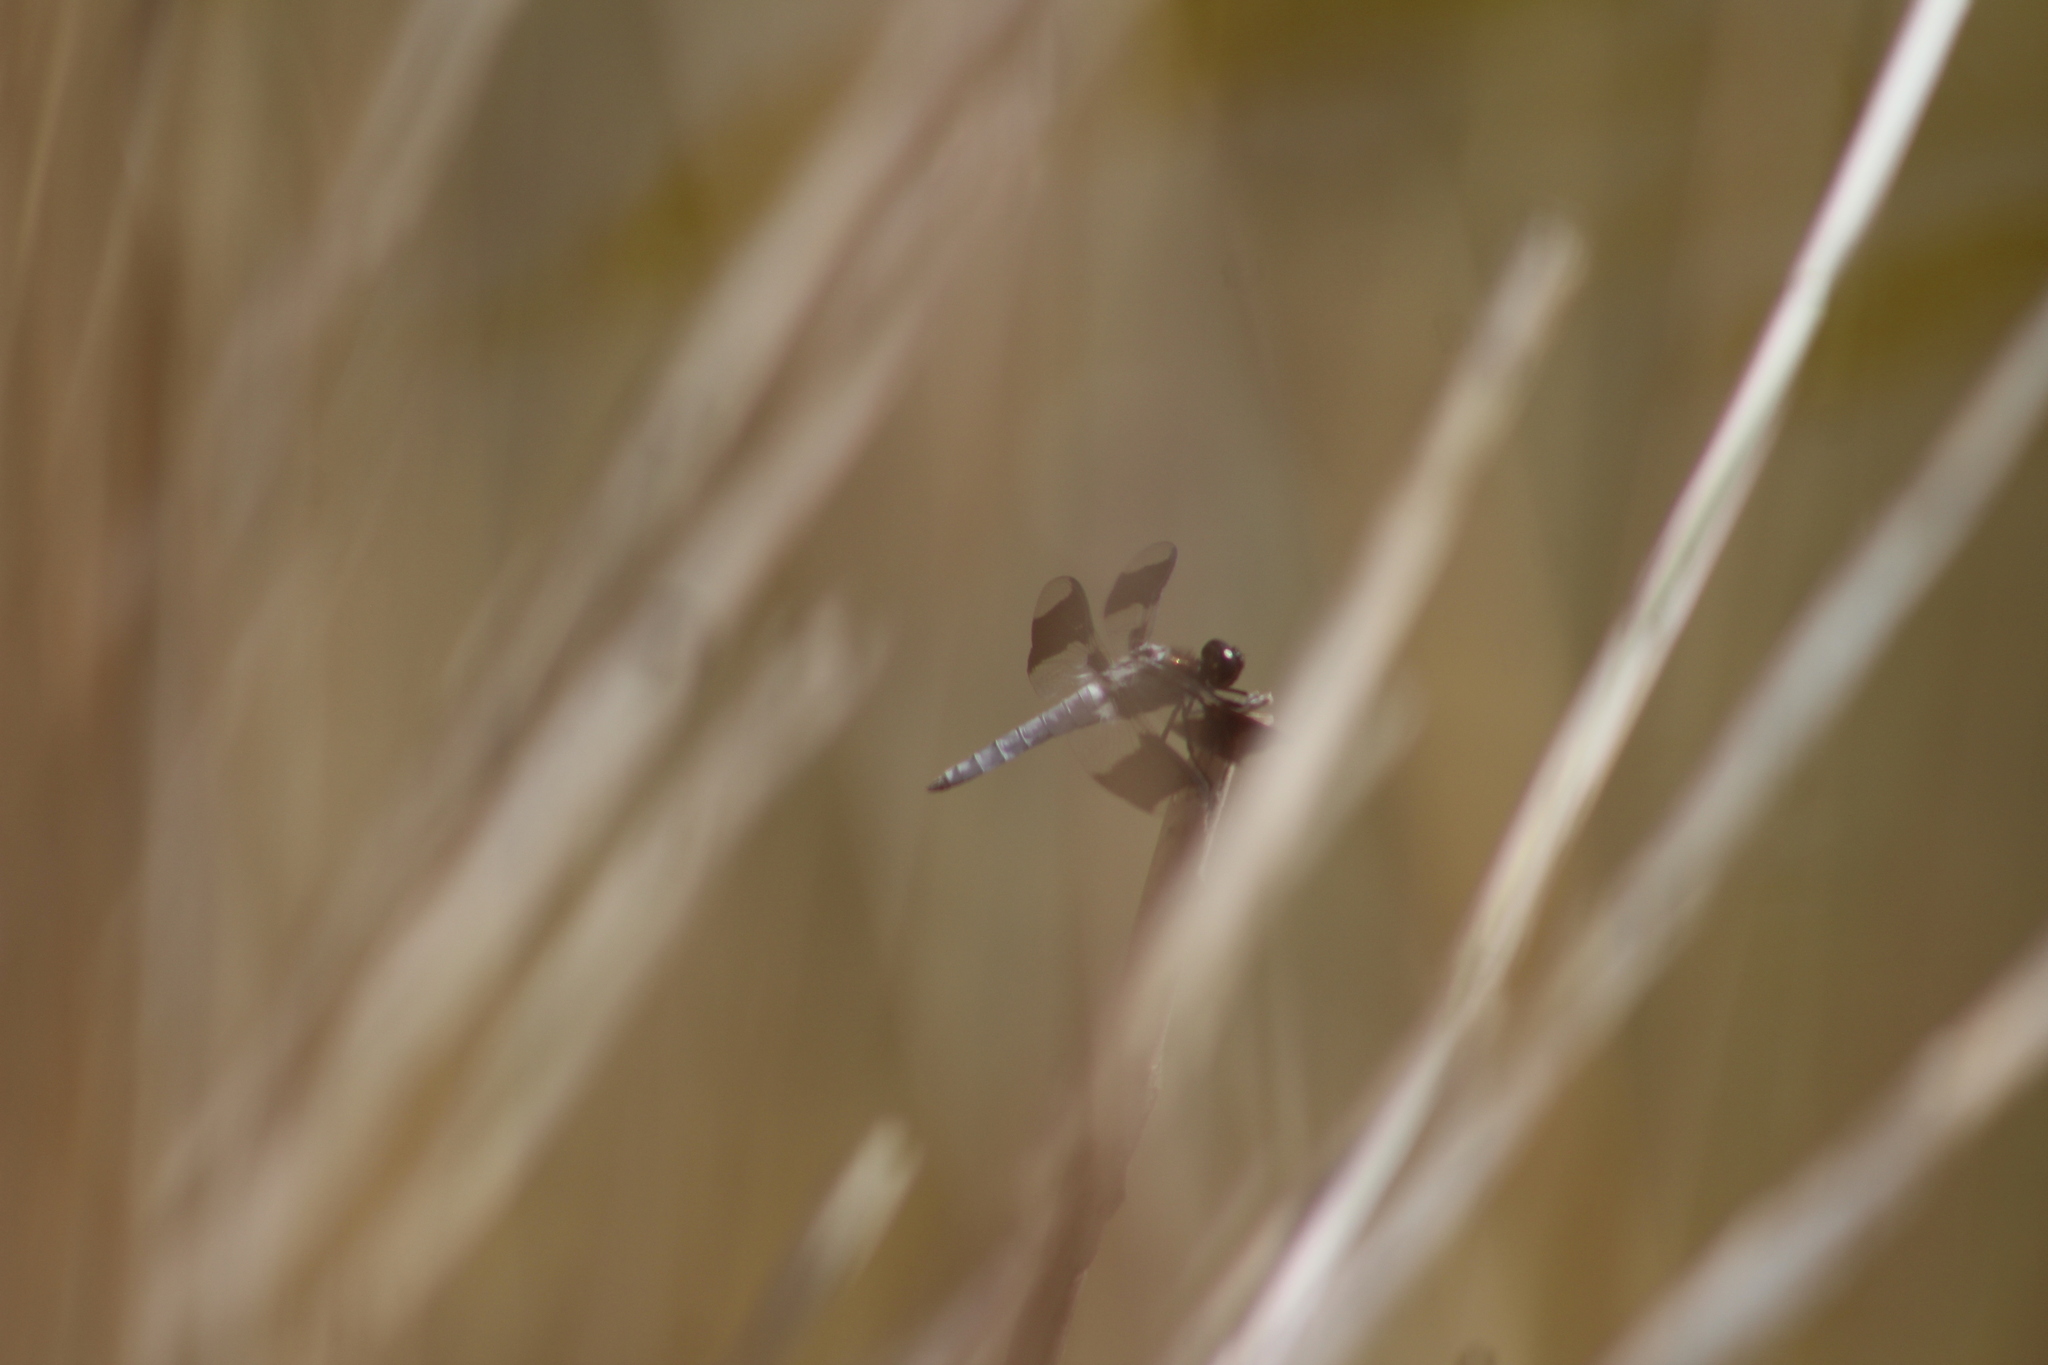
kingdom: Animalia
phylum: Arthropoda
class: Insecta
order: Odonata
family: Libellulidae
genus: Plathemis
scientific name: Plathemis lydia
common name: Common whitetail
